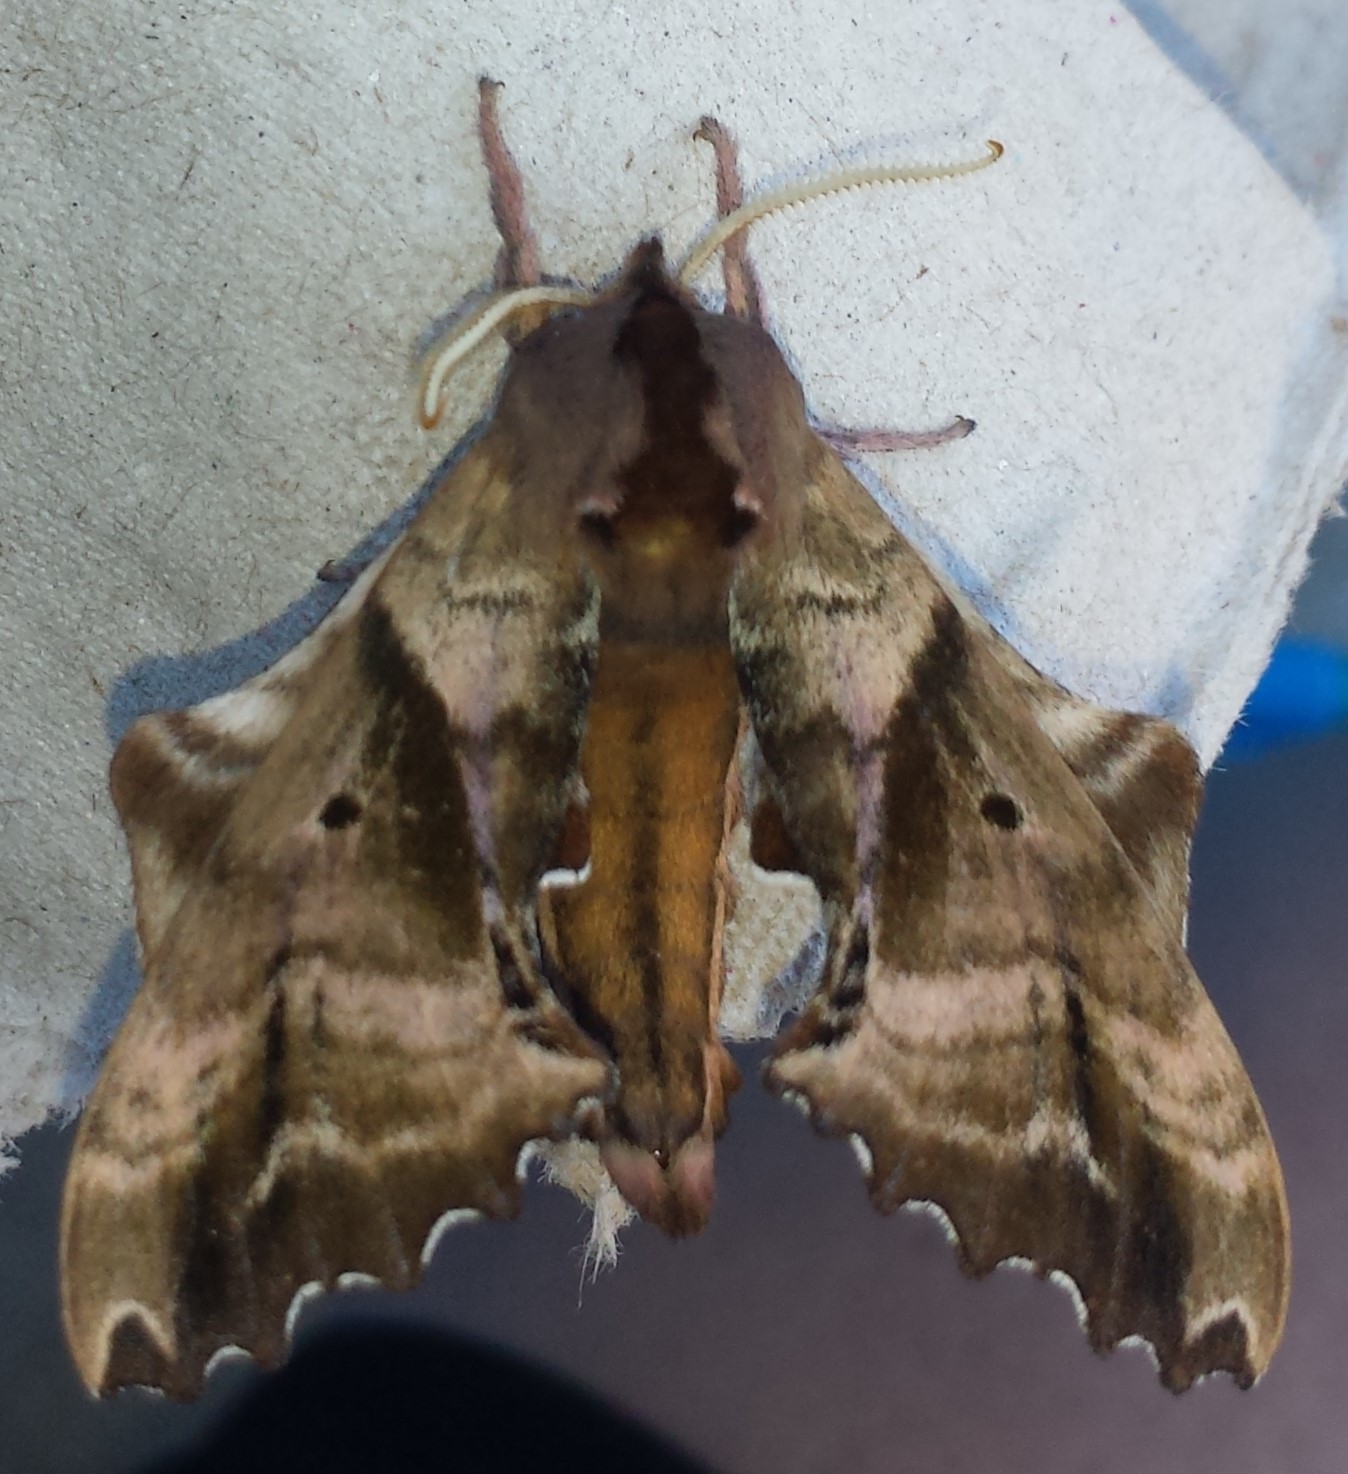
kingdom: Animalia
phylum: Arthropoda
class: Insecta
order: Lepidoptera
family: Sphingidae
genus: Paonias
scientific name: Paonias excaecata
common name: Blind-eyed sphinx
